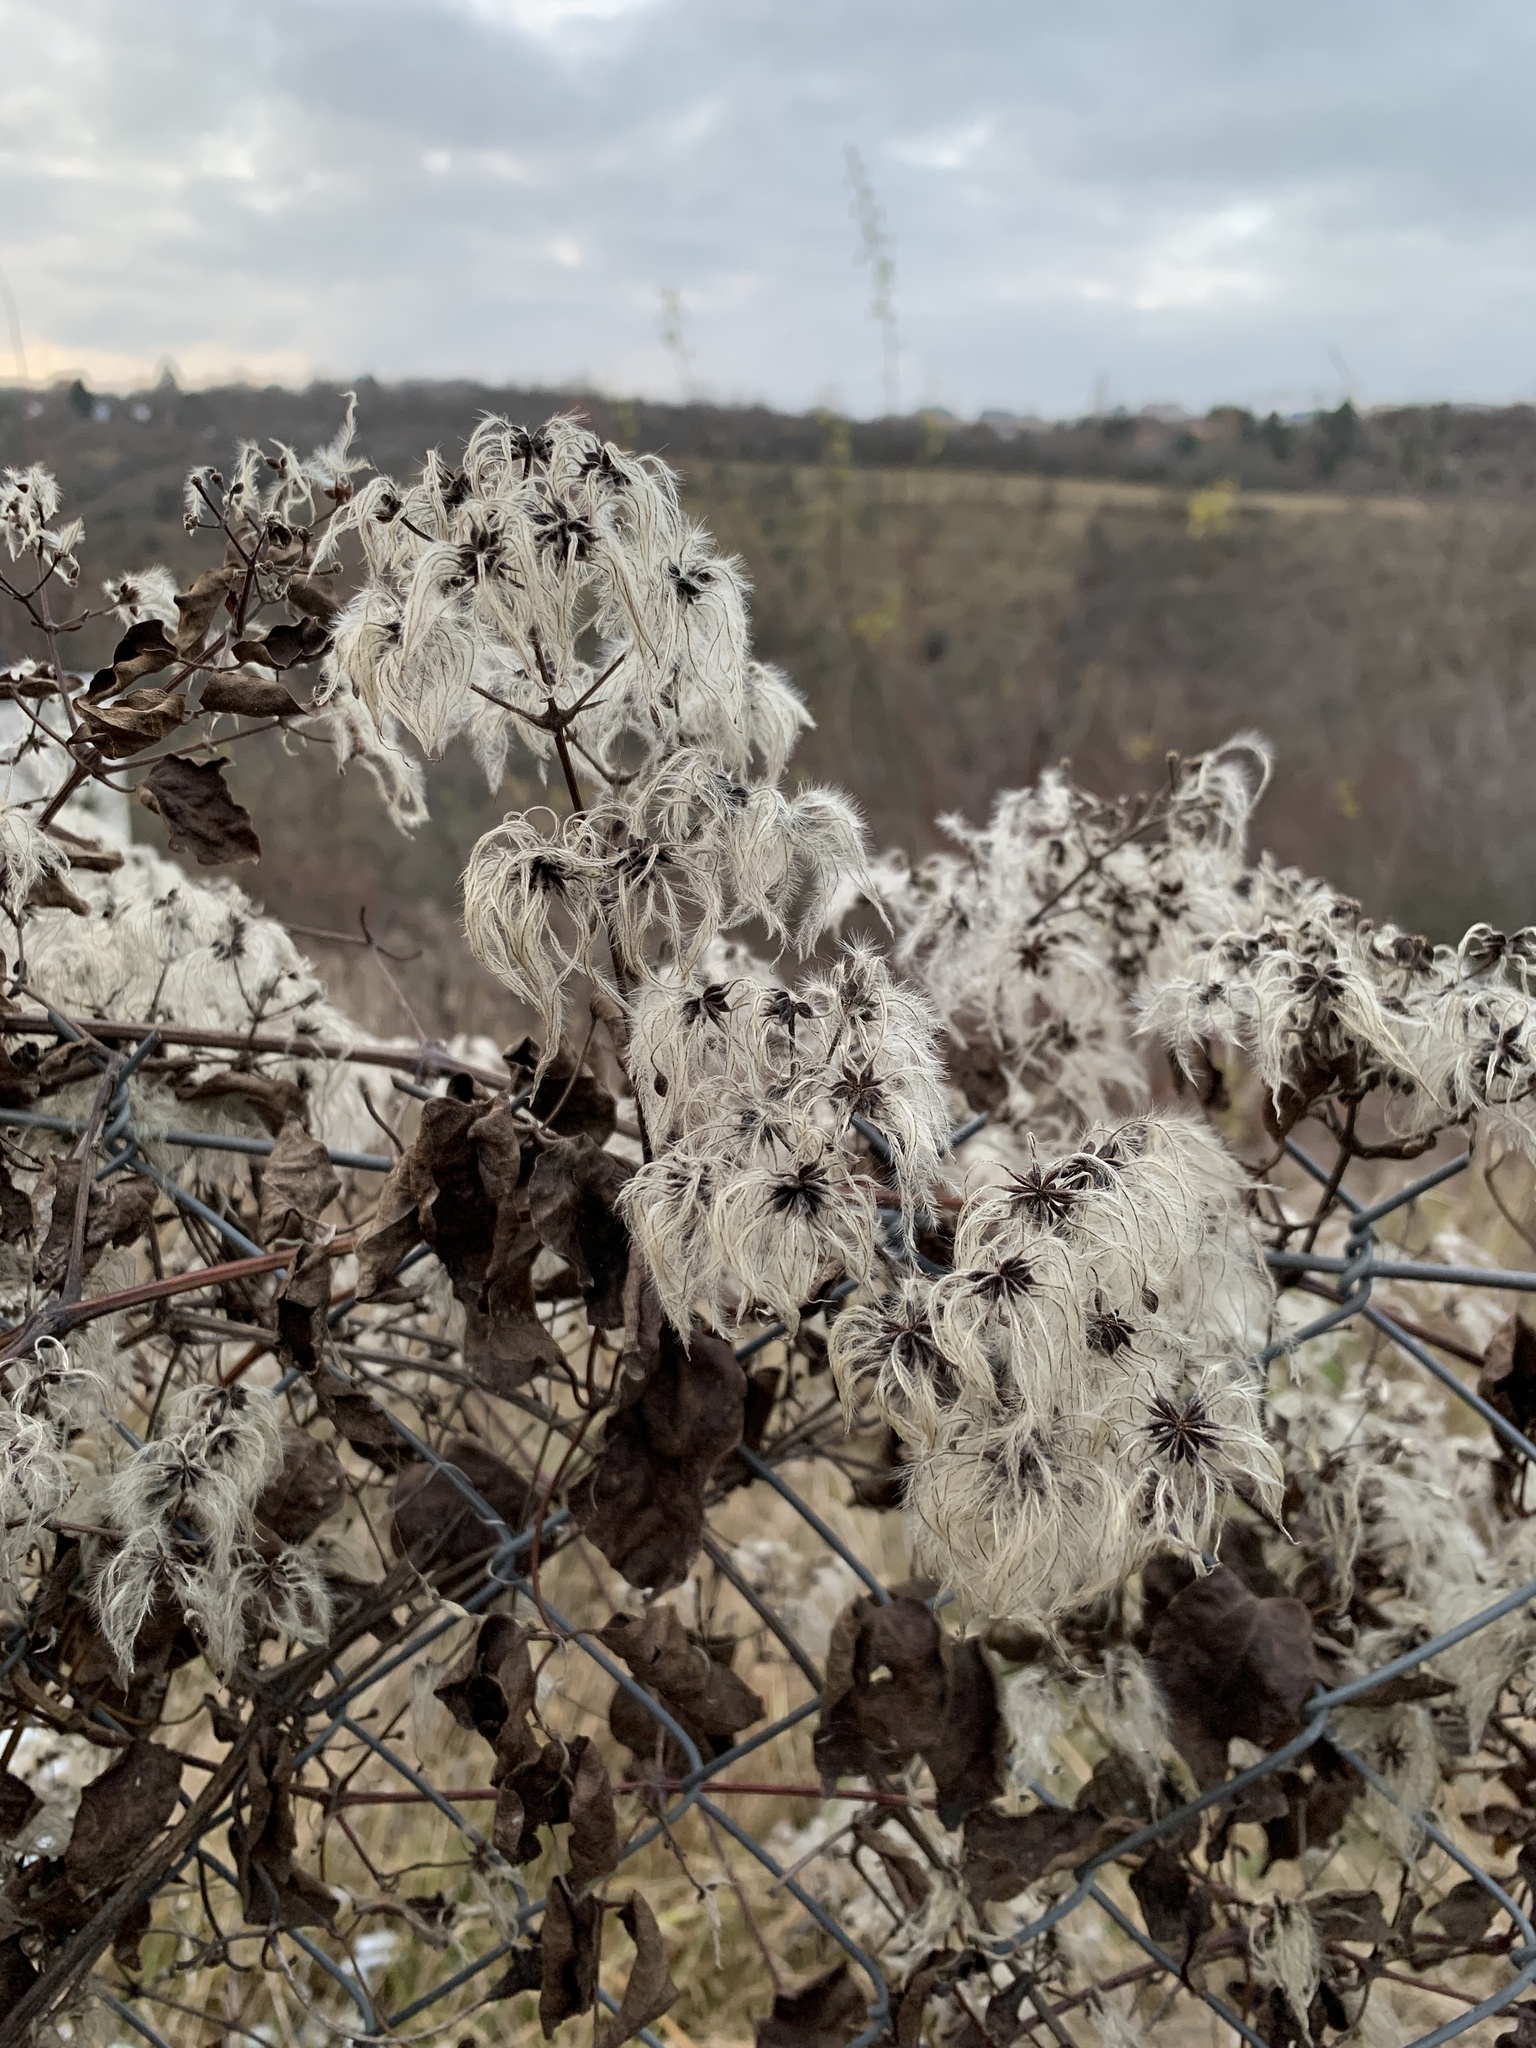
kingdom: Plantae
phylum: Tracheophyta
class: Magnoliopsida
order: Ranunculales
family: Ranunculaceae
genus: Clematis
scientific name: Clematis vitalba
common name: Evergreen clematis
